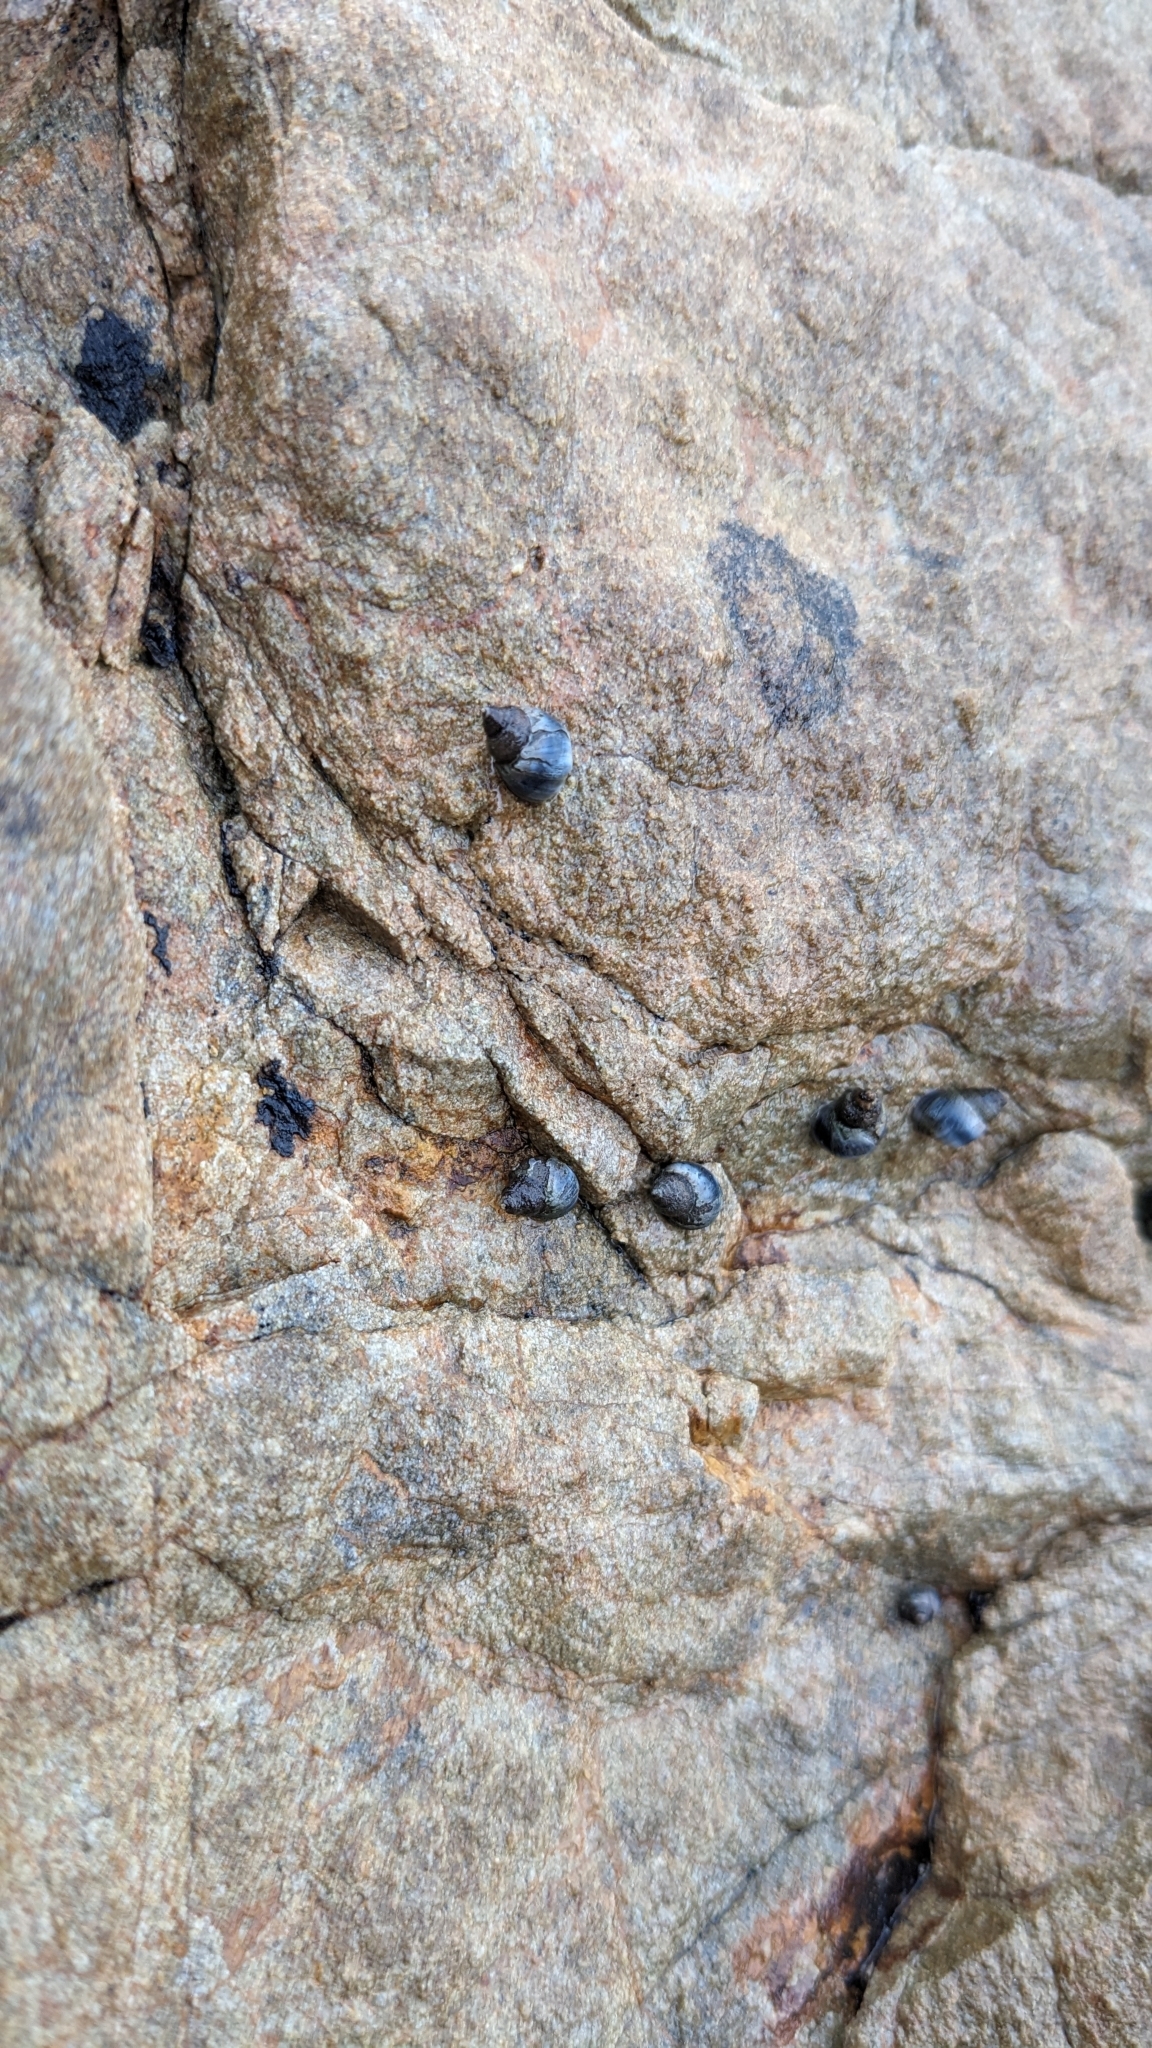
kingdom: Animalia
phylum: Mollusca
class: Gastropoda
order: Littorinimorpha
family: Littorinidae
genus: Austrolittorina
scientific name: Austrolittorina antipodum
